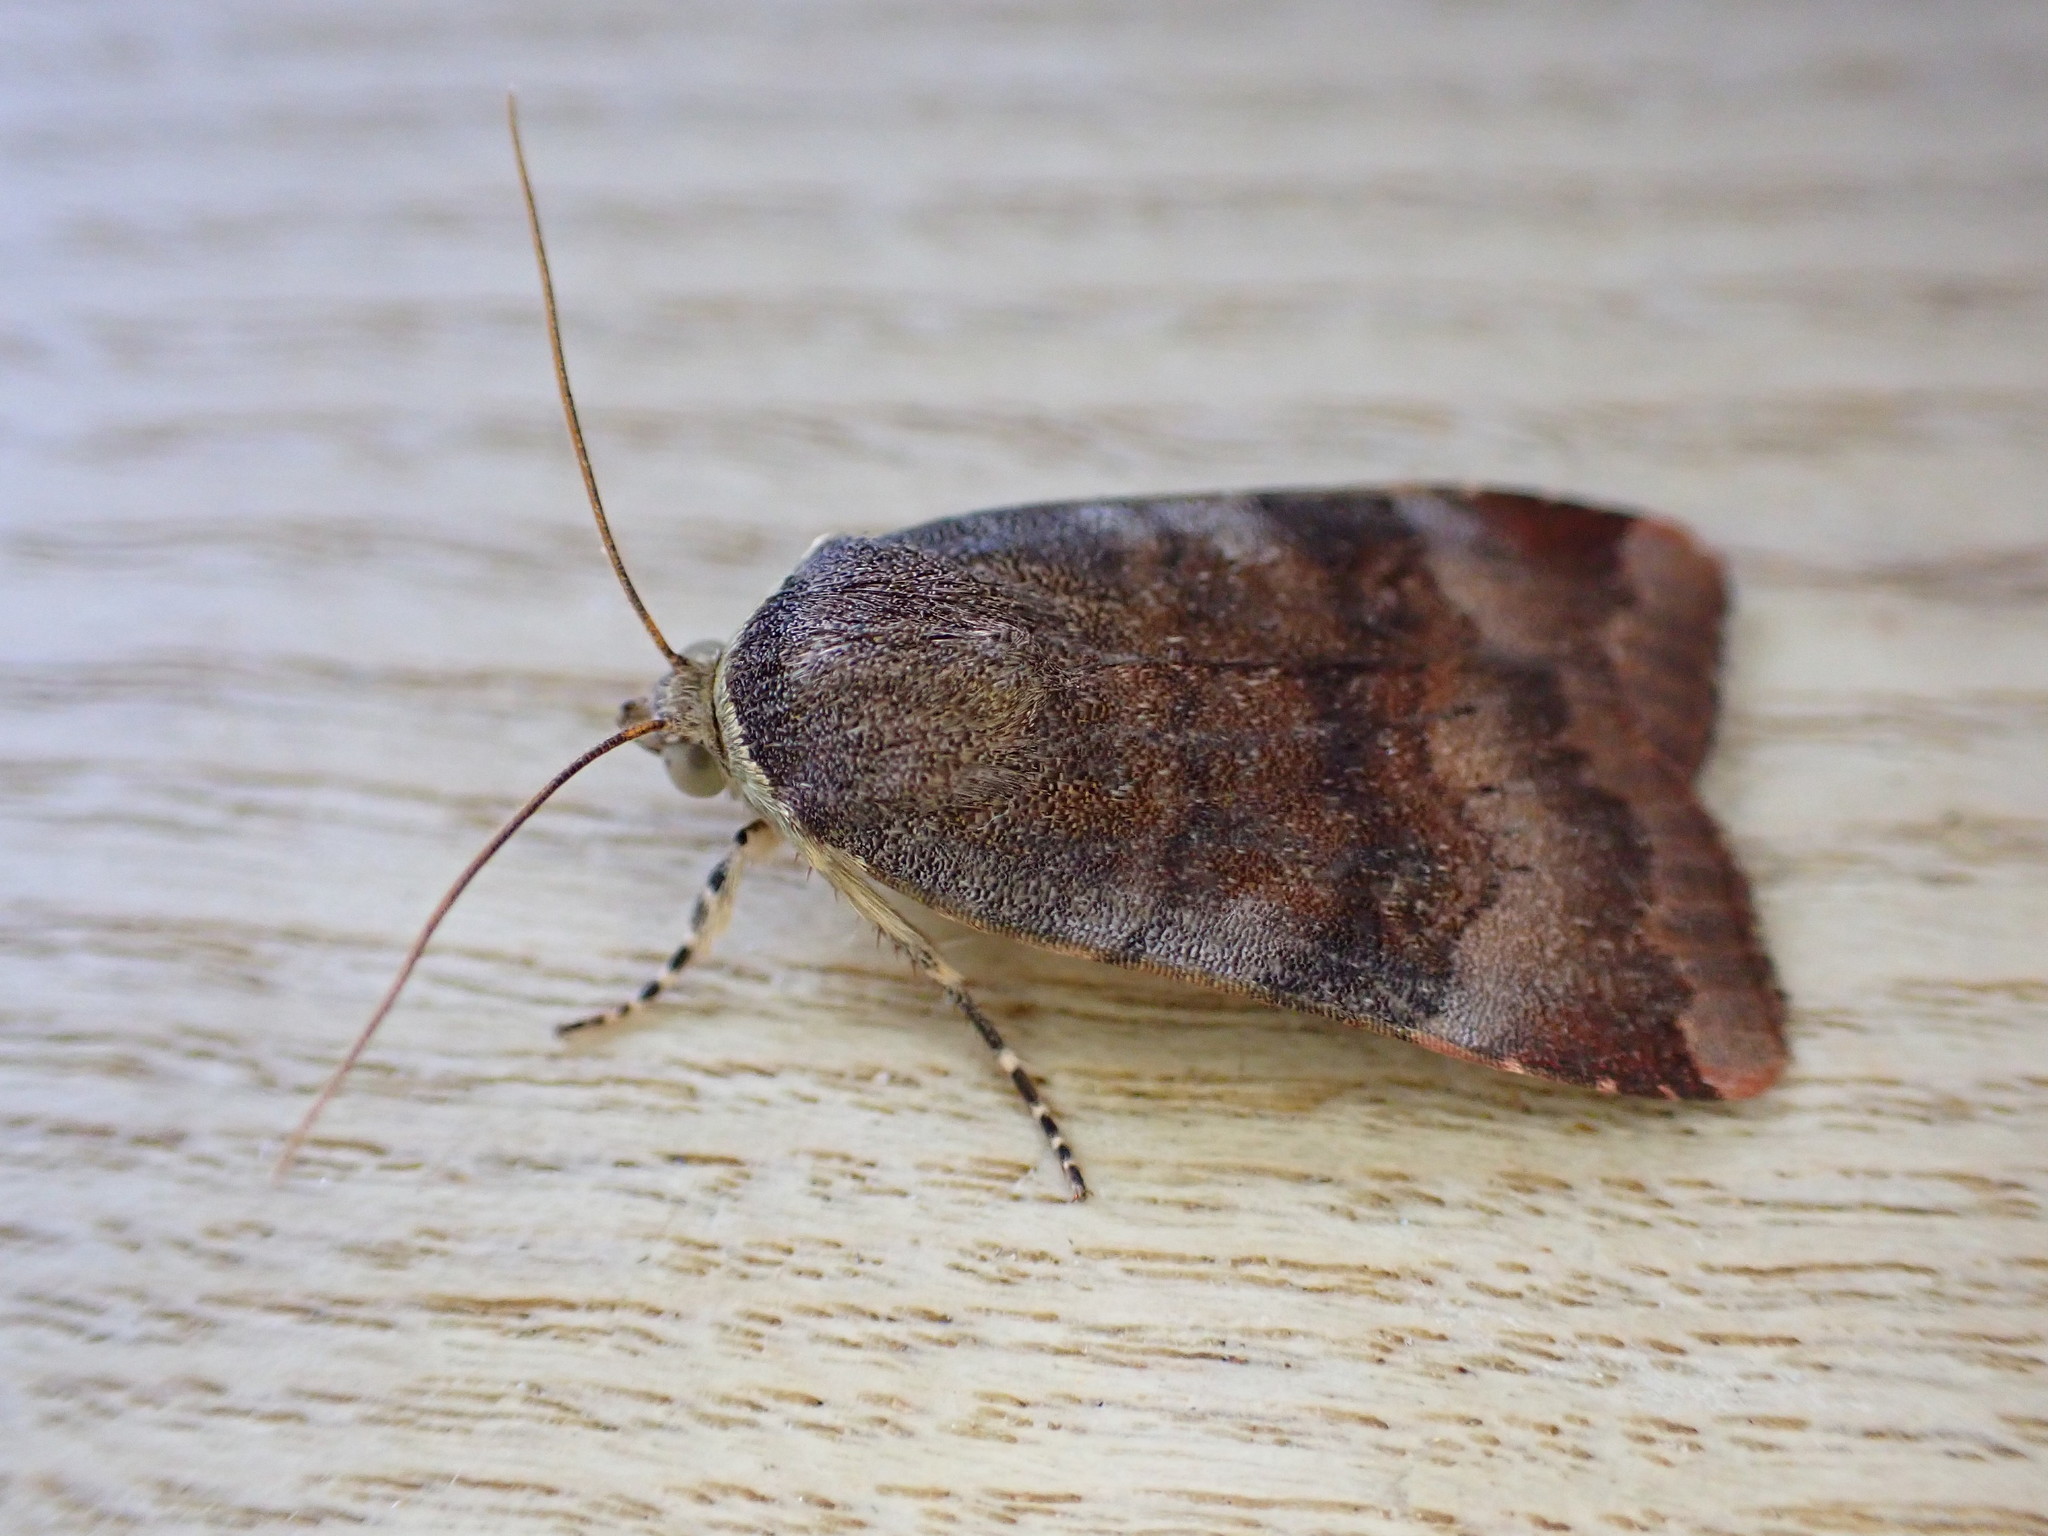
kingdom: Animalia
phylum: Arthropoda
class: Insecta
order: Lepidoptera
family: Noctuidae
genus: Noctua
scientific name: Noctua janthe
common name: Lesser broad-bordered yellow underwing
